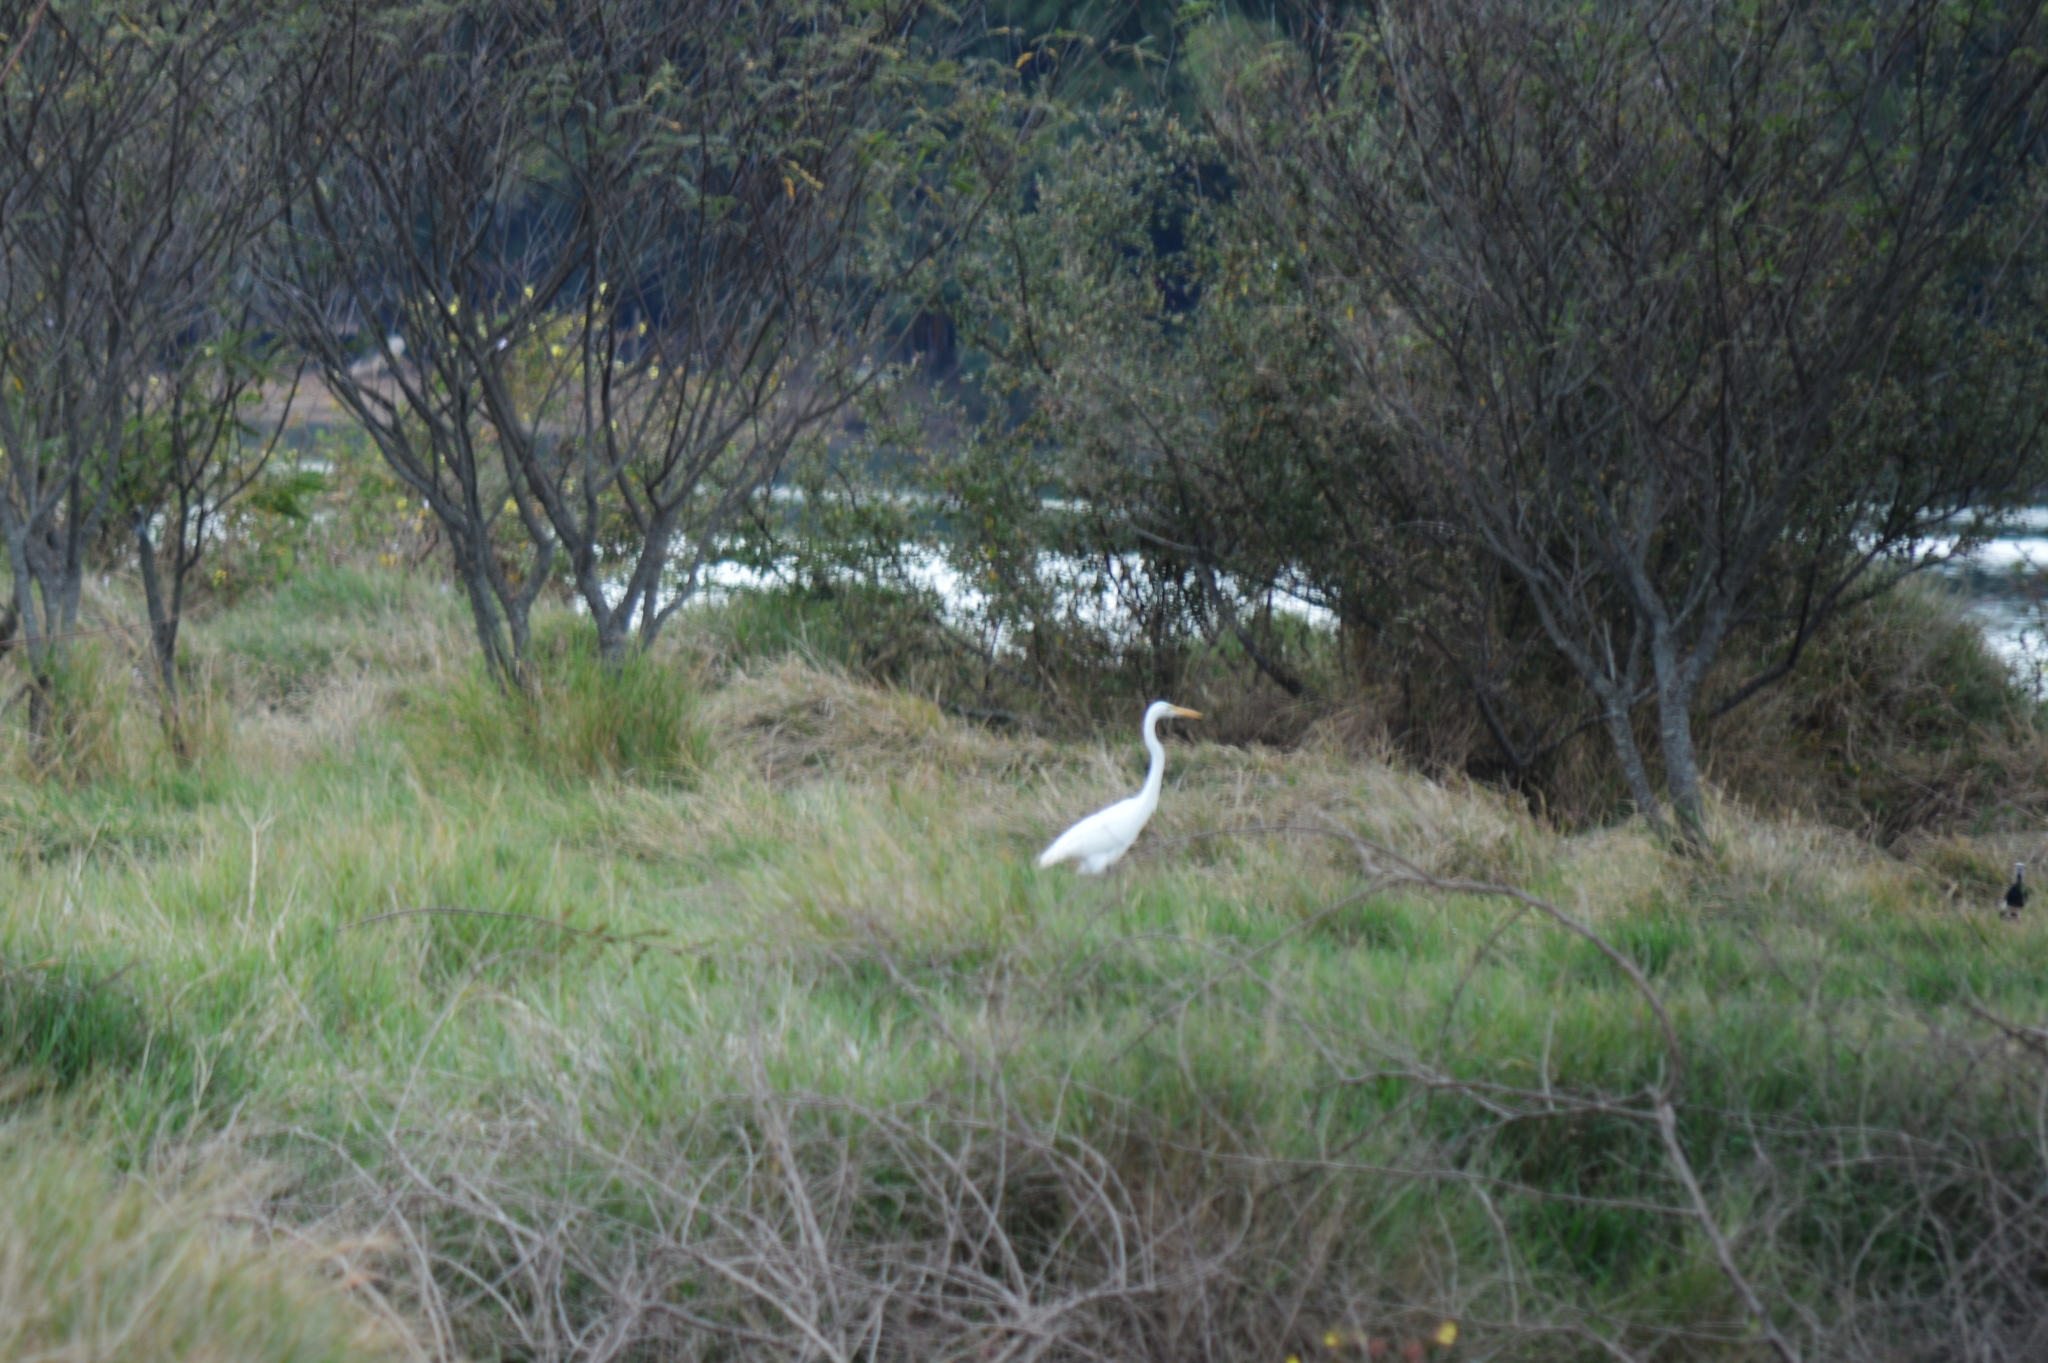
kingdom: Animalia
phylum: Chordata
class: Aves
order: Pelecaniformes
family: Ardeidae
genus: Ardea
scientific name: Ardea alba
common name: Great egret
